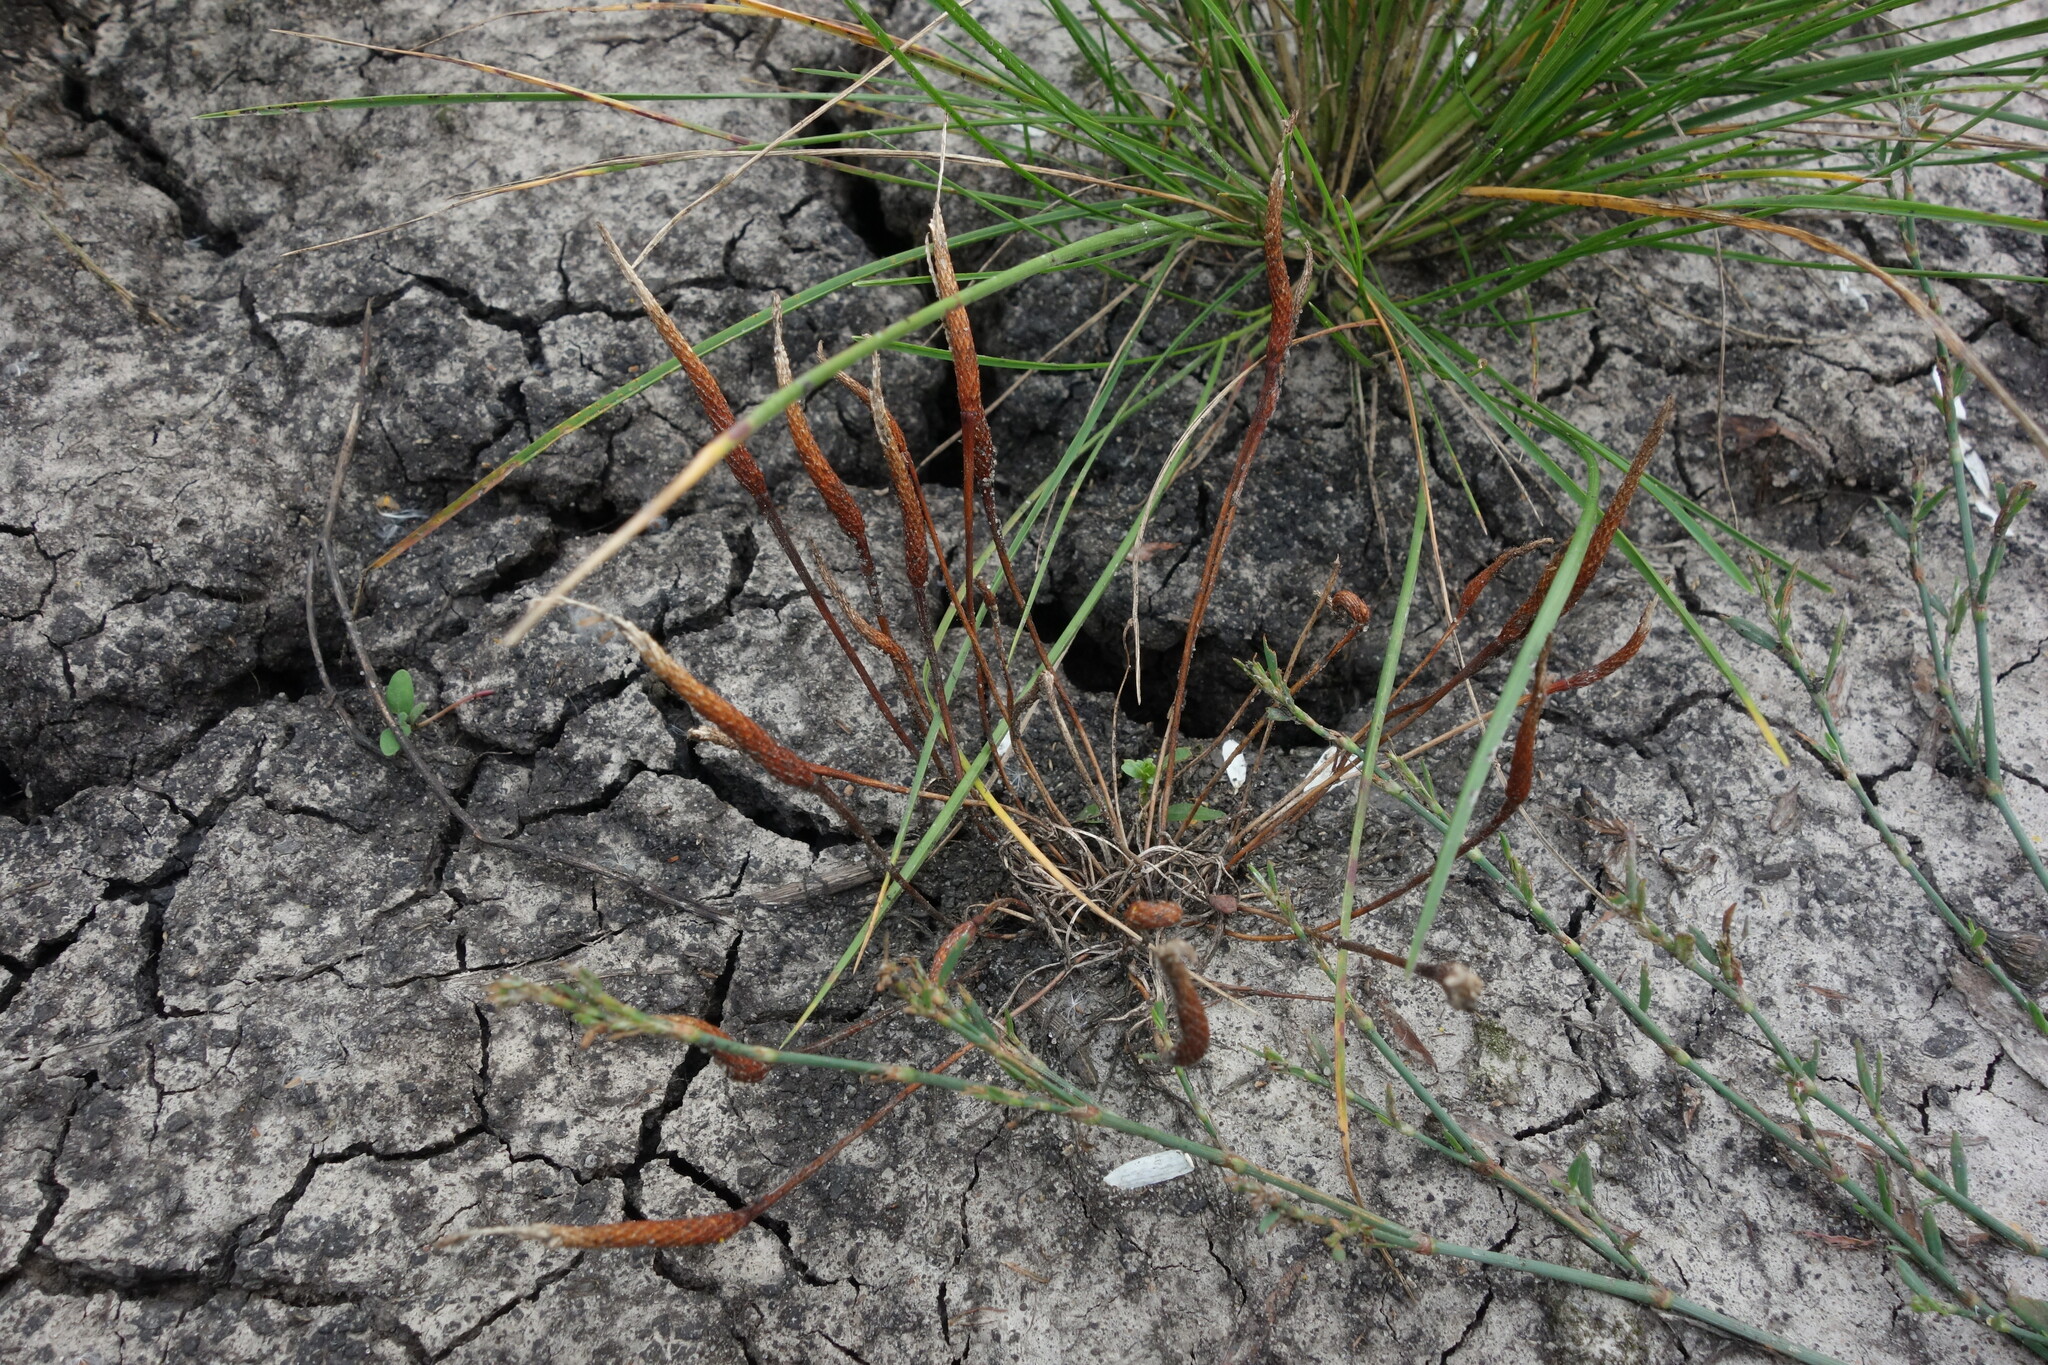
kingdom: Plantae
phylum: Tracheophyta
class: Magnoliopsida
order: Ranunculales
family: Ranunculaceae
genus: Myosurus
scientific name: Myosurus minimus
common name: Mousetail
